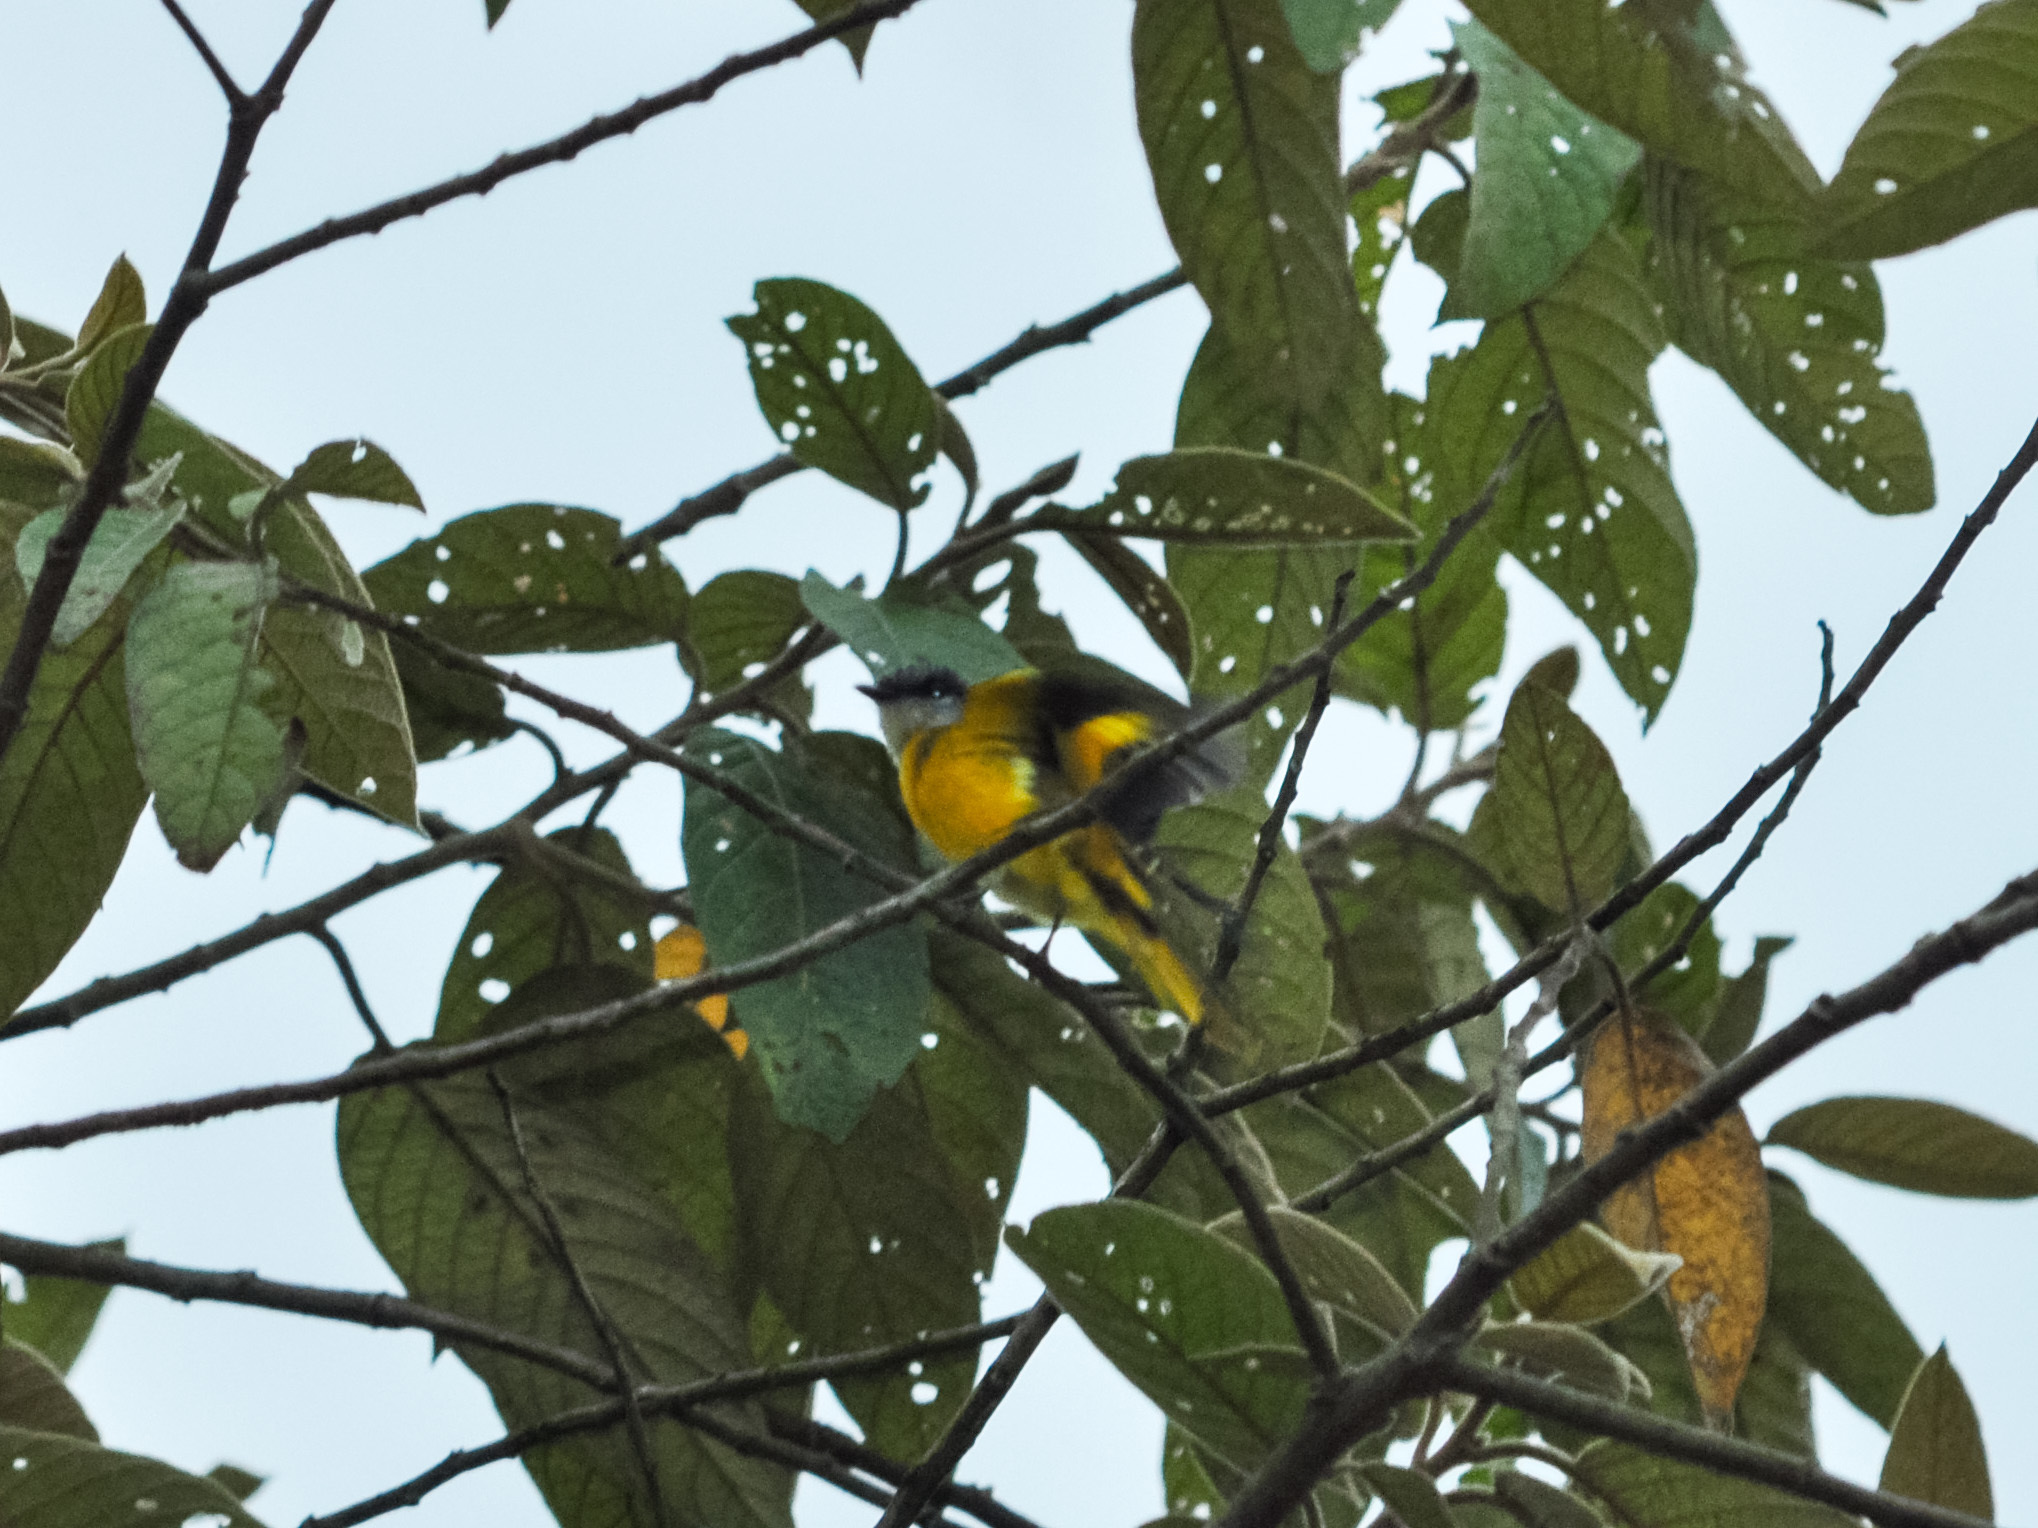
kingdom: Animalia
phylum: Chordata
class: Aves
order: Passeriformes
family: Campephagidae
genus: Pericrocotus
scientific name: Pericrocotus solaris
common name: Grey-chinned minivet
